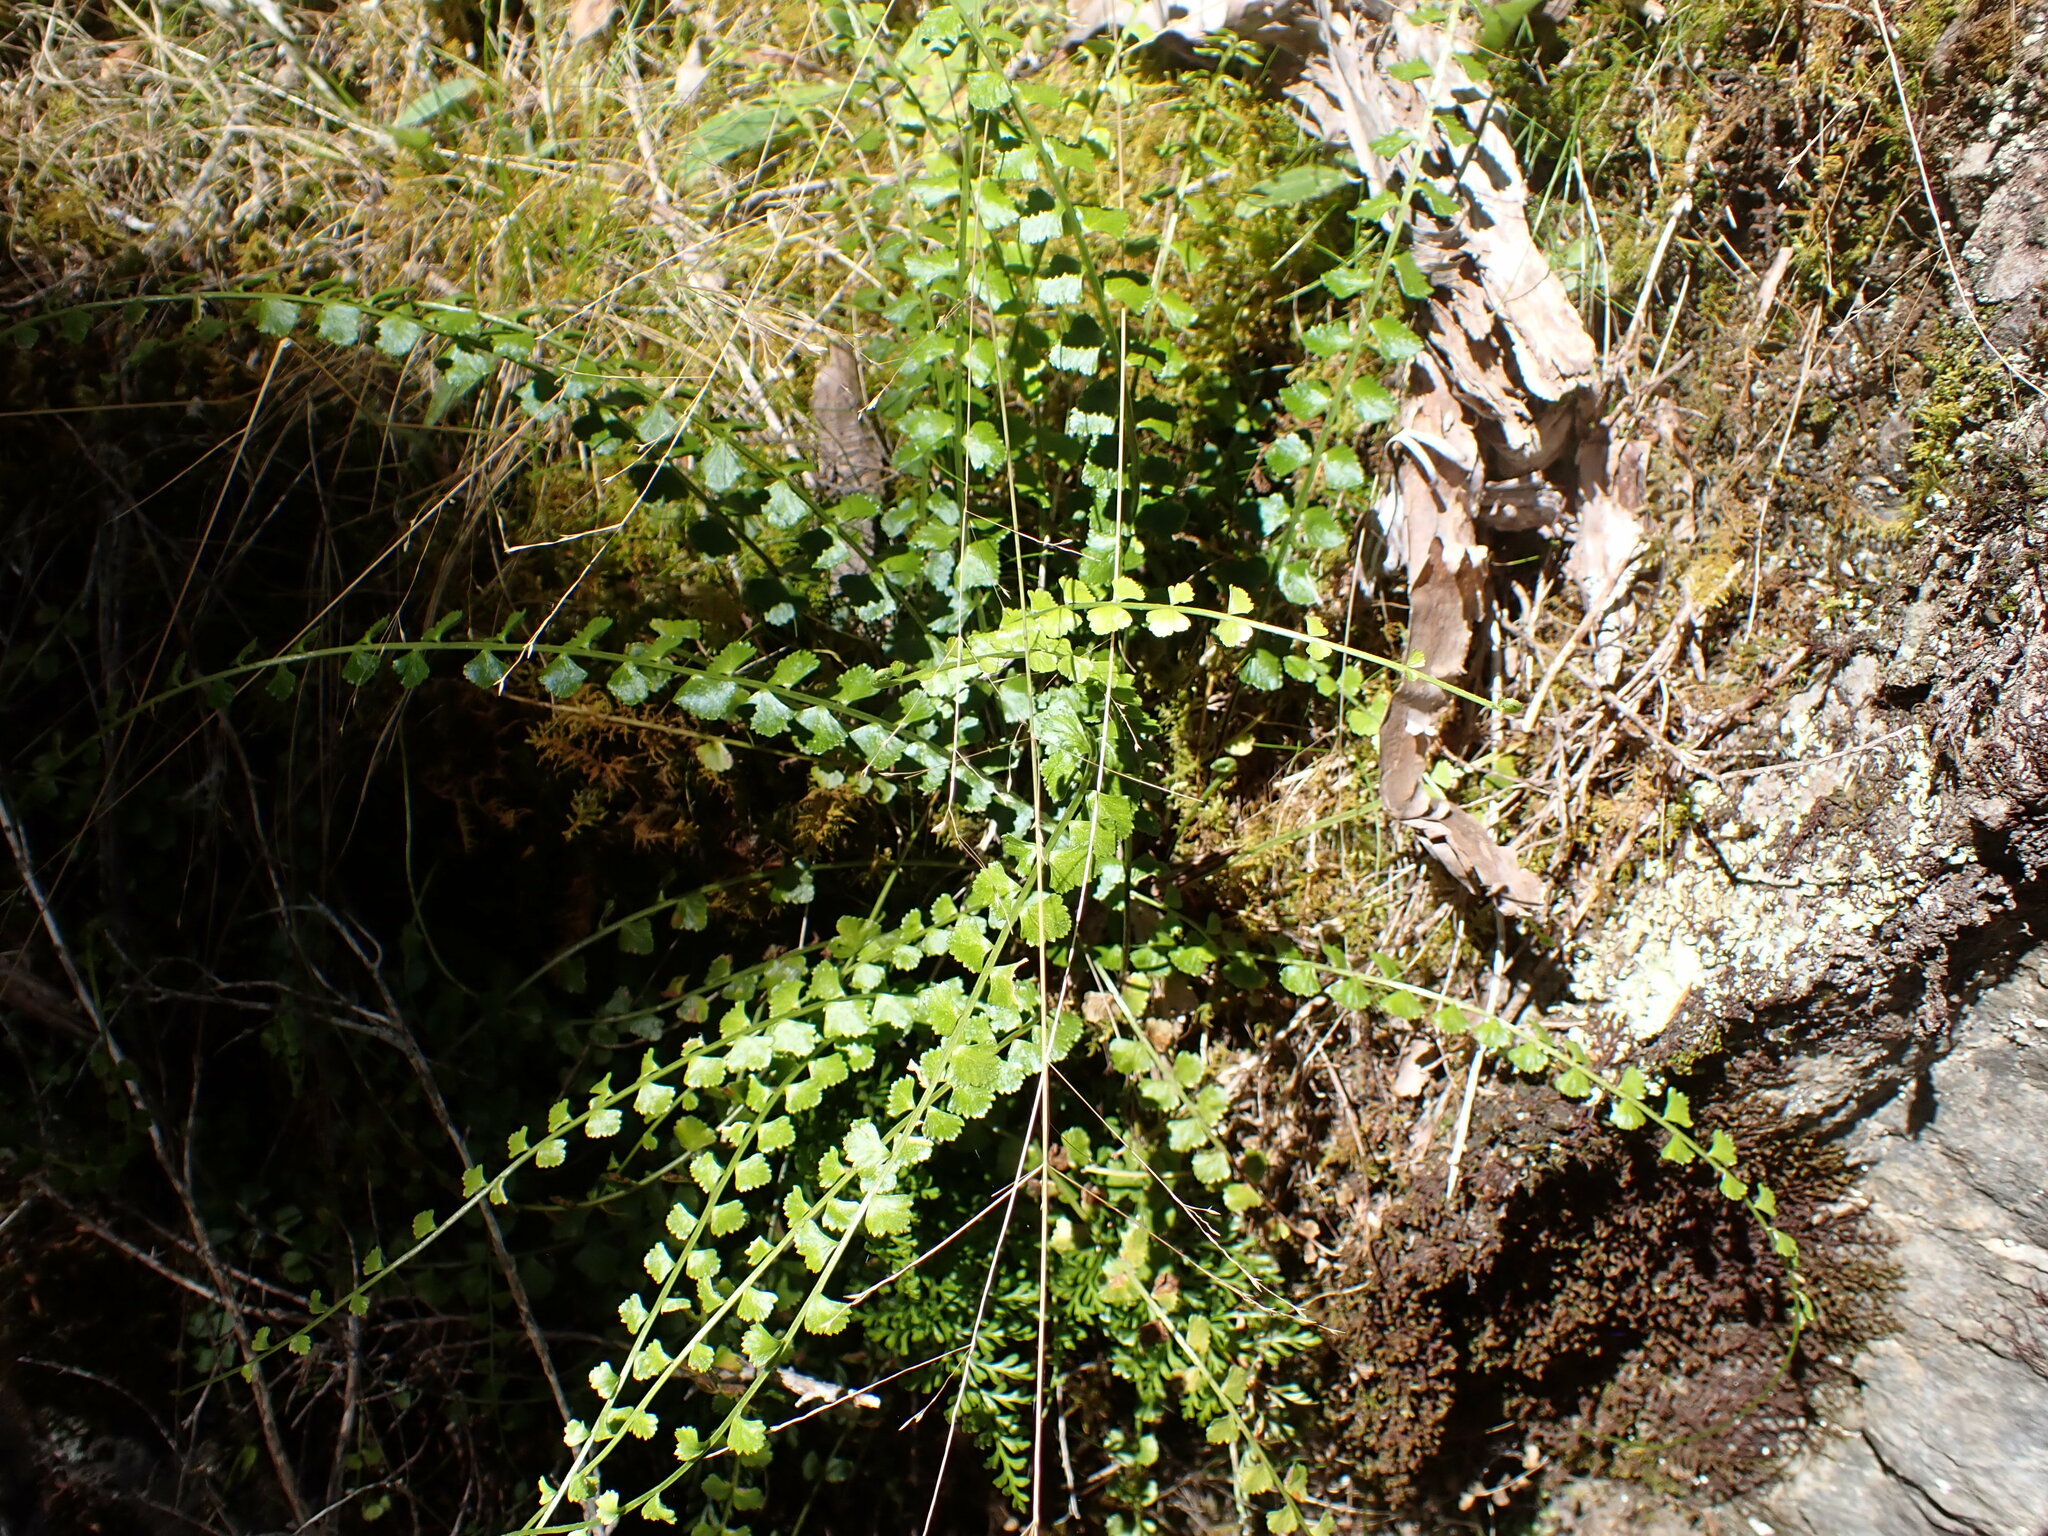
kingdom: Plantae
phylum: Tracheophyta
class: Polypodiopsida
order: Polypodiales
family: Aspleniaceae
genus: Asplenium
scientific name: Asplenium flabellifolium
